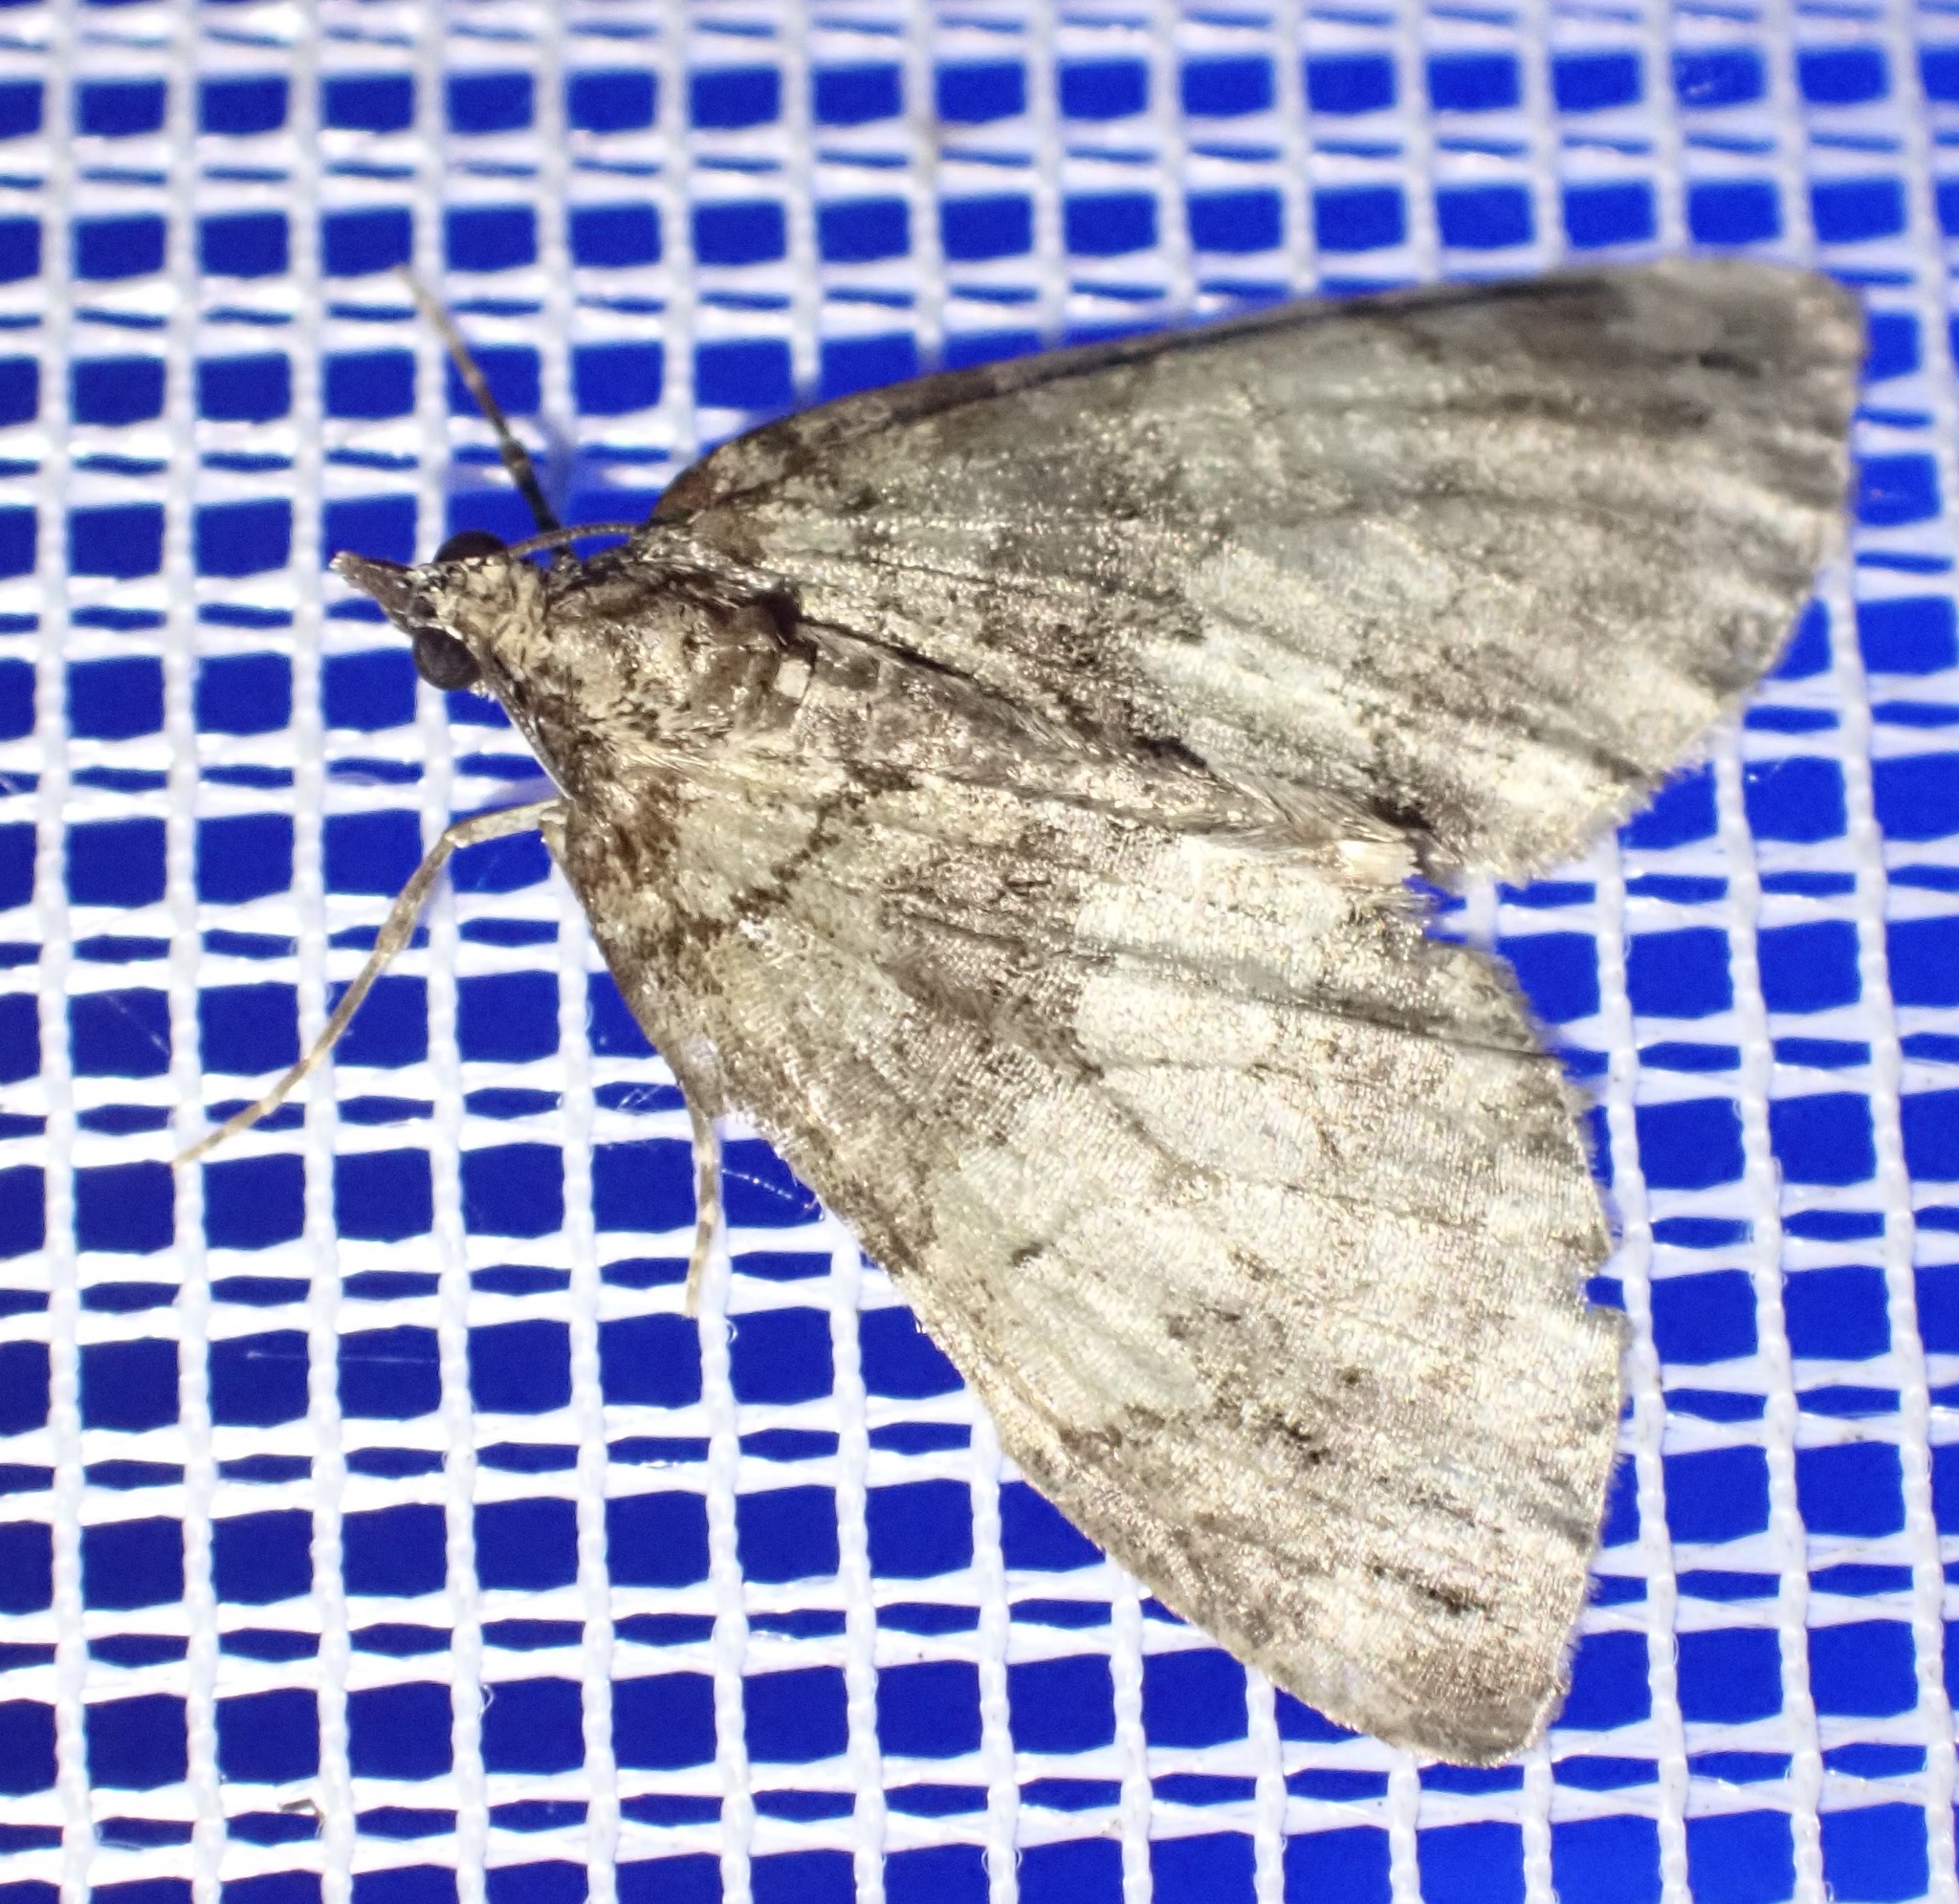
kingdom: Animalia
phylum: Arthropoda
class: Insecta
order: Lepidoptera
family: Geometridae
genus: Hydriomena
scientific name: Hydriomena impluviata
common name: May highflyer
